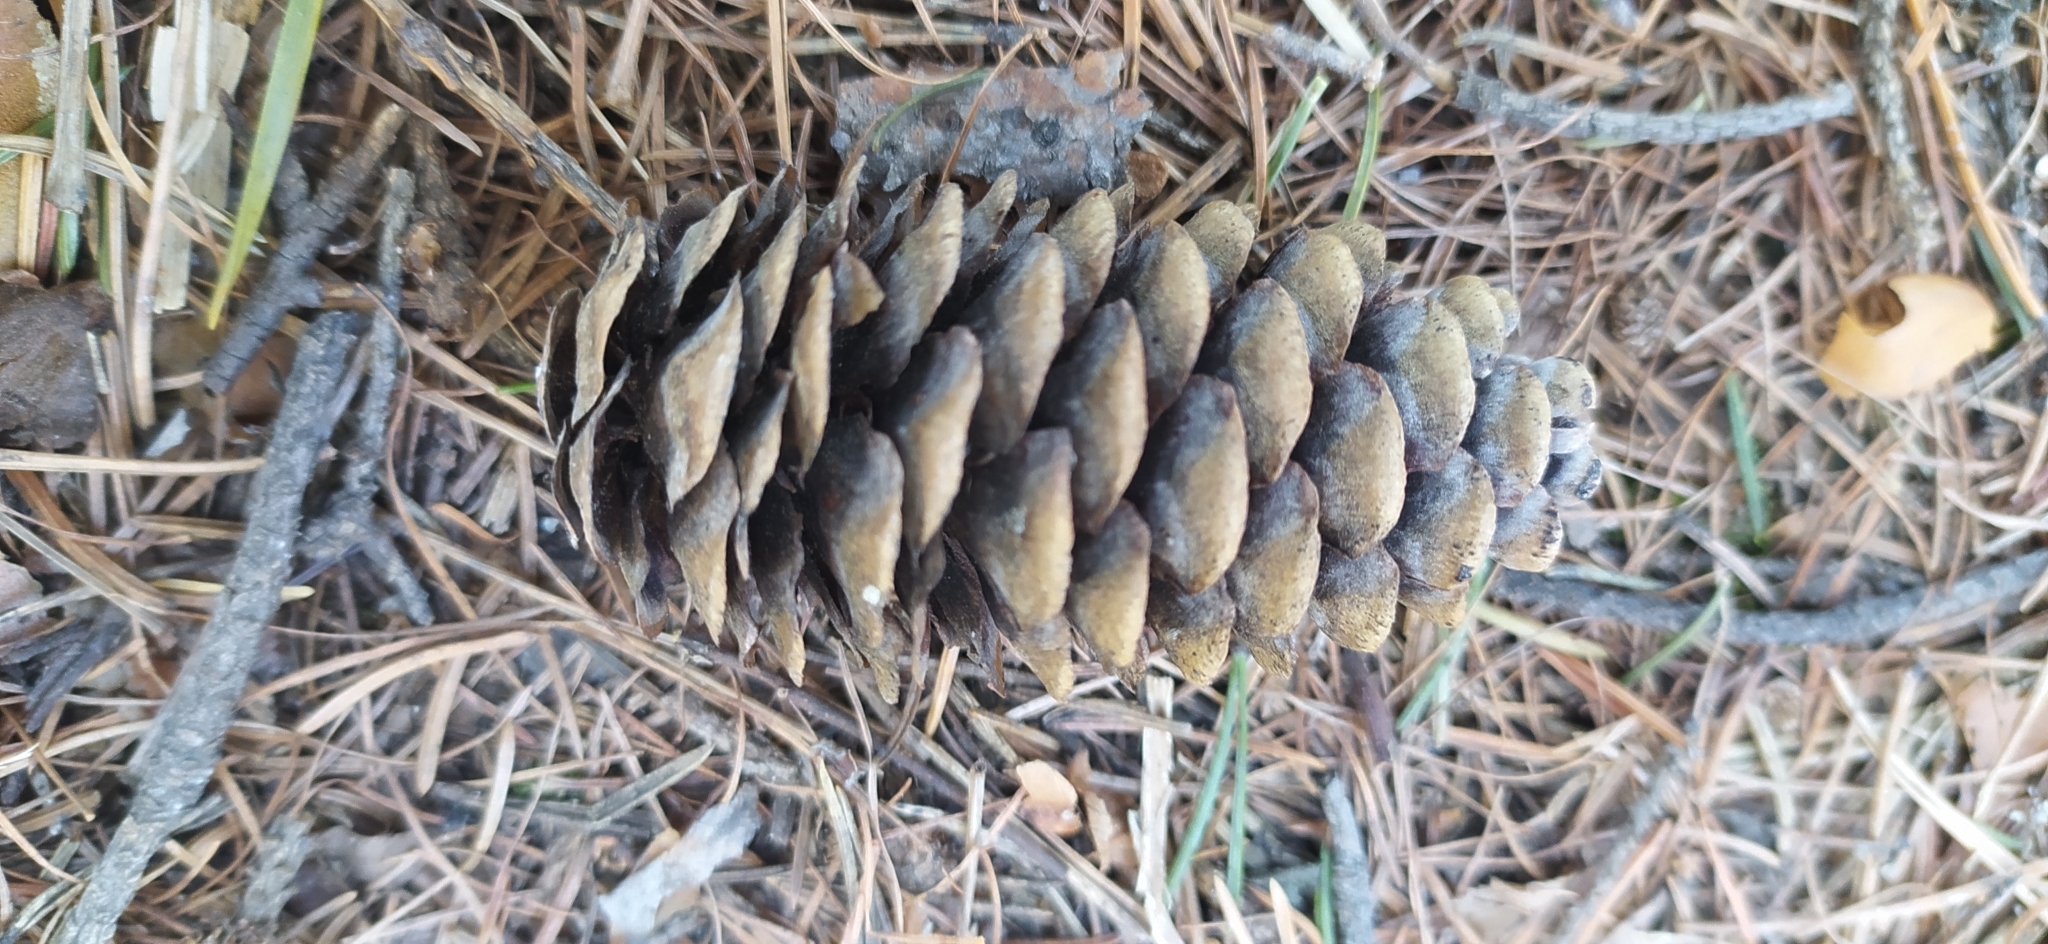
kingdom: Plantae
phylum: Tracheophyta
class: Pinopsida
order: Pinales
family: Pinaceae
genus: Picea
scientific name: Picea obovata
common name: Siberian spruce
